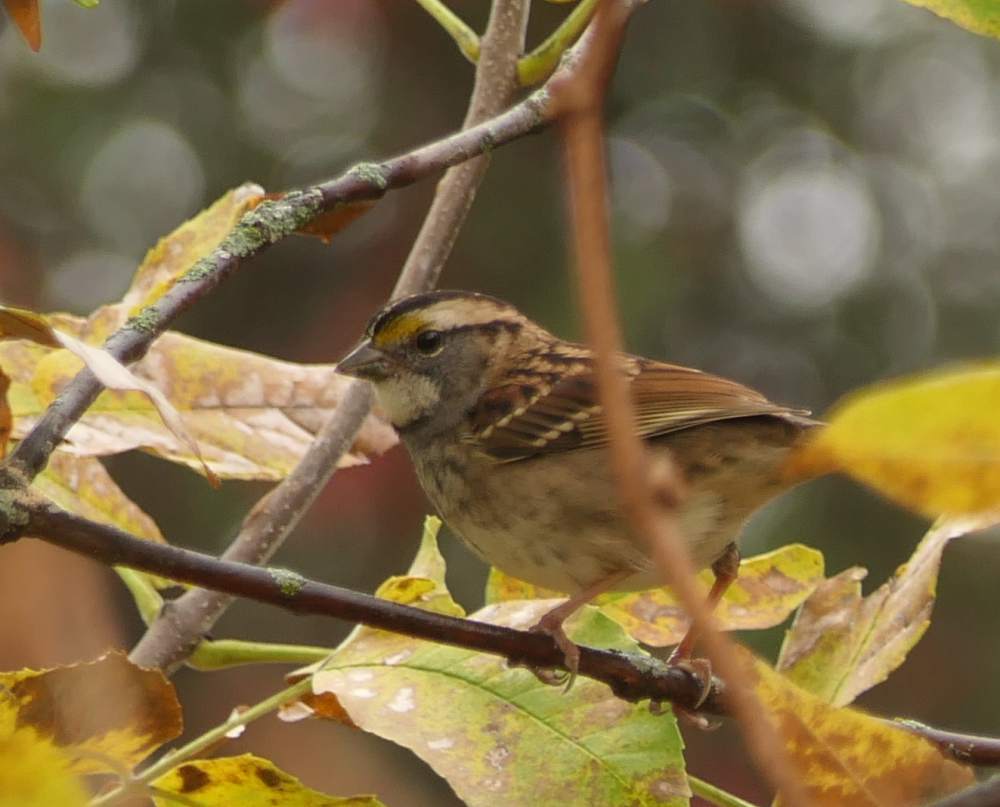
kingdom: Animalia
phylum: Chordata
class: Aves
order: Passeriformes
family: Passerellidae
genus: Zonotrichia
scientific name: Zonotrichia albicollis
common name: White-throated sparrow
